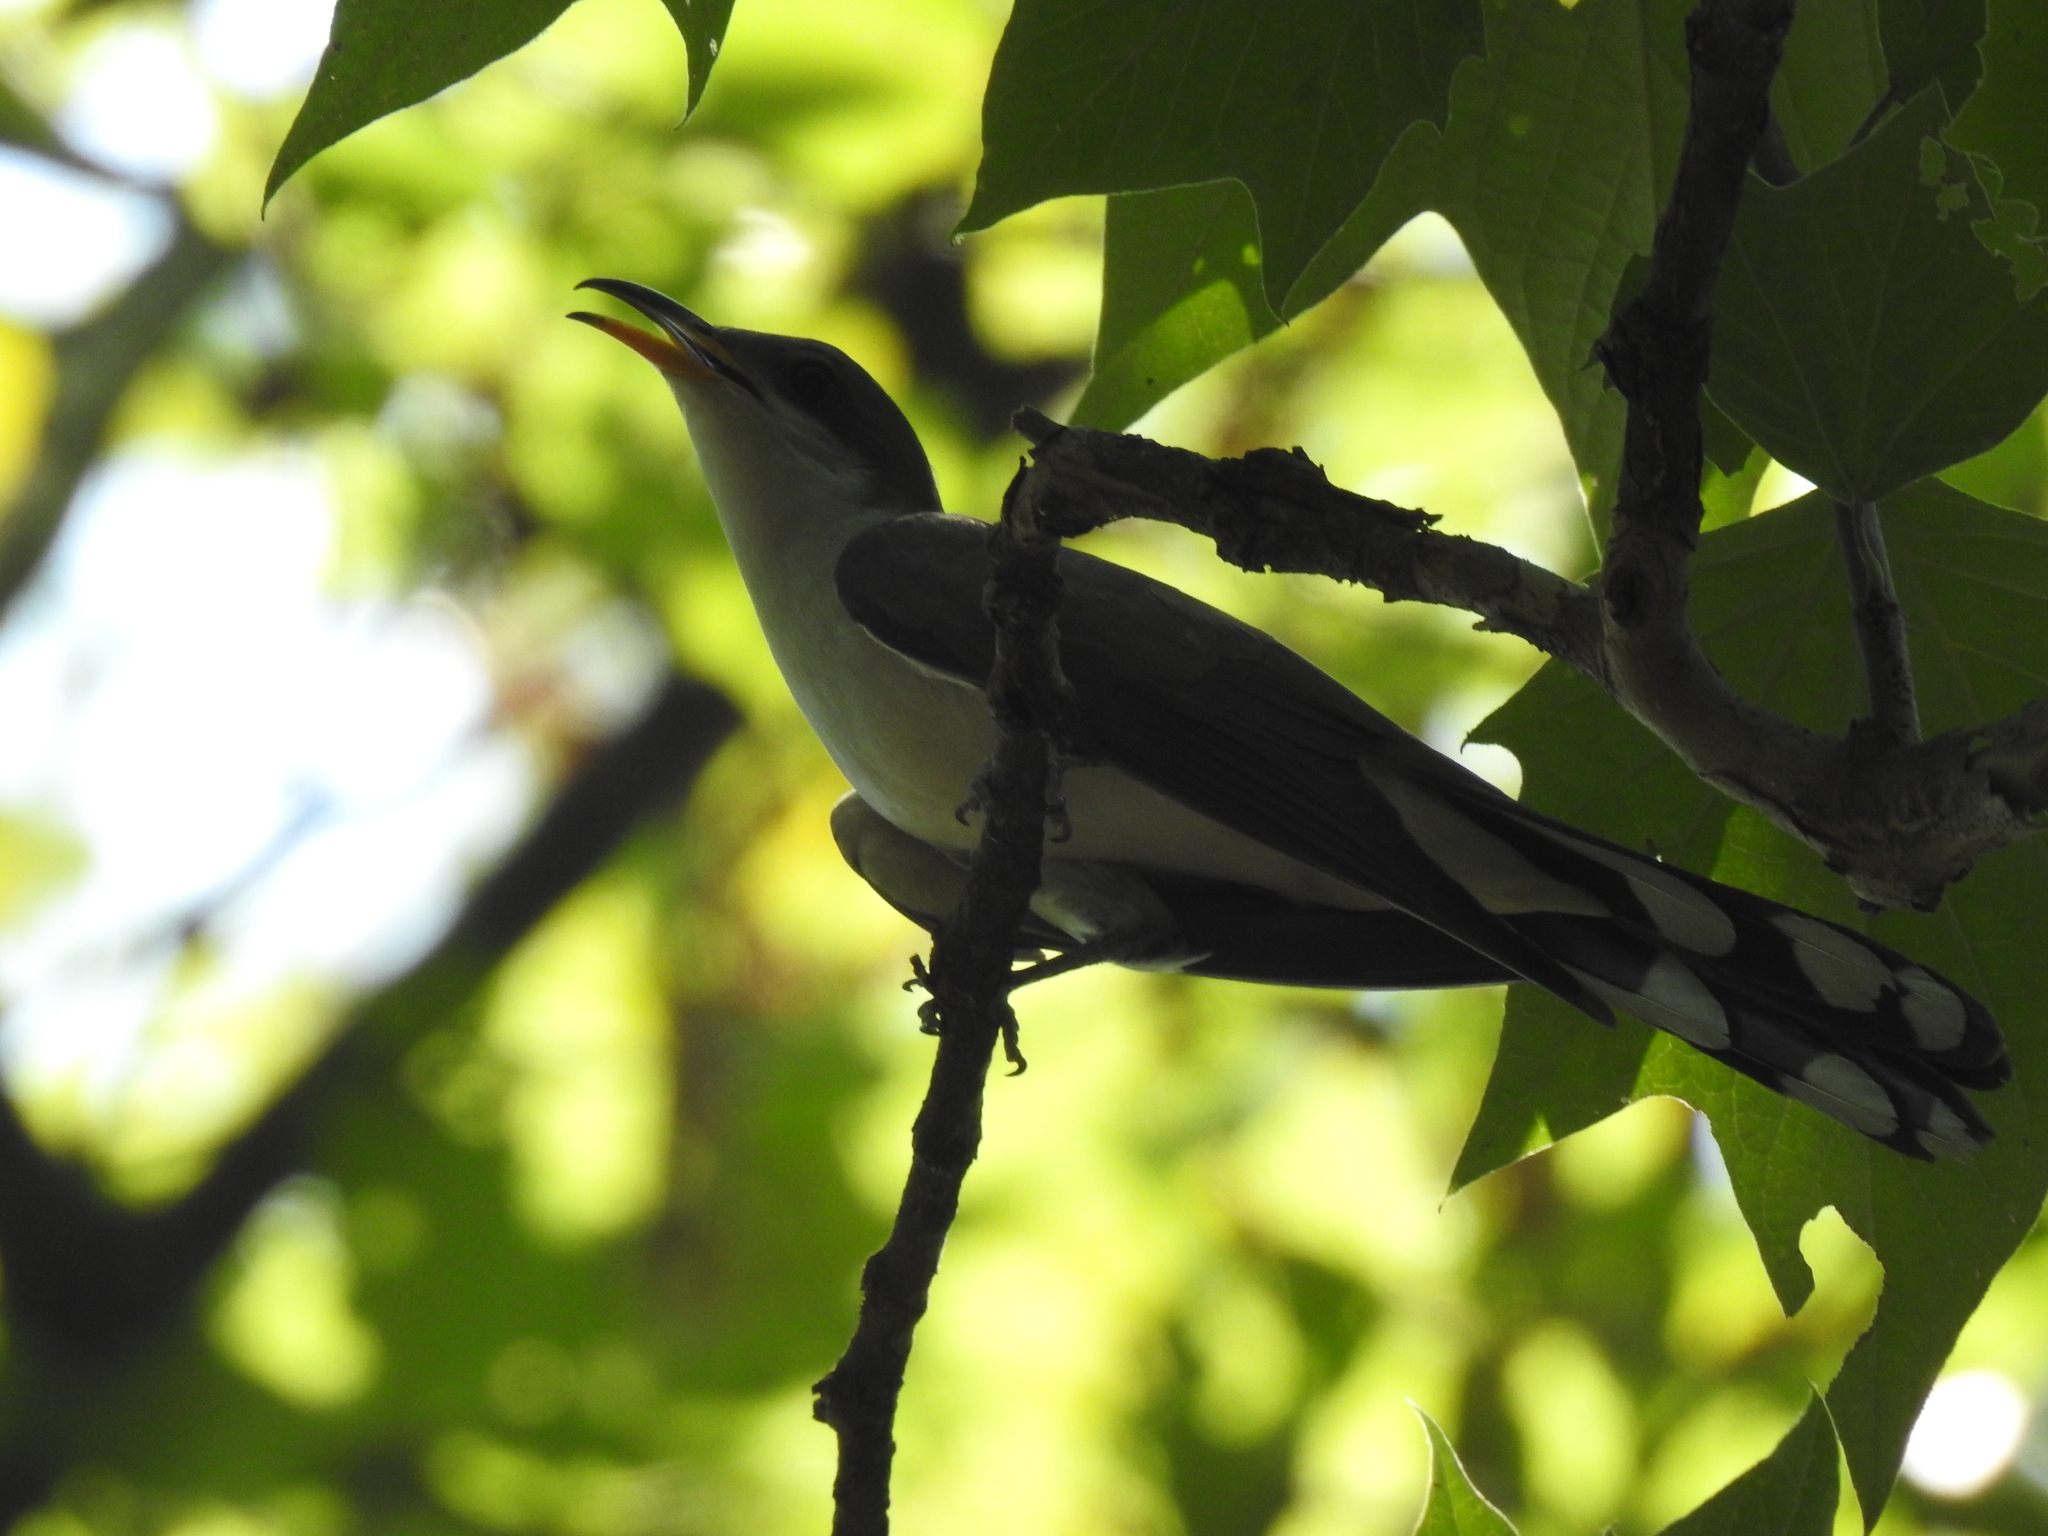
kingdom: Animalia
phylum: Chordata
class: Aves
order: Cuculiformes
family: Cuculidae
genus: Coccyzus
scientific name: Coccyzus americanus
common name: Yellow-billed cuckoo
